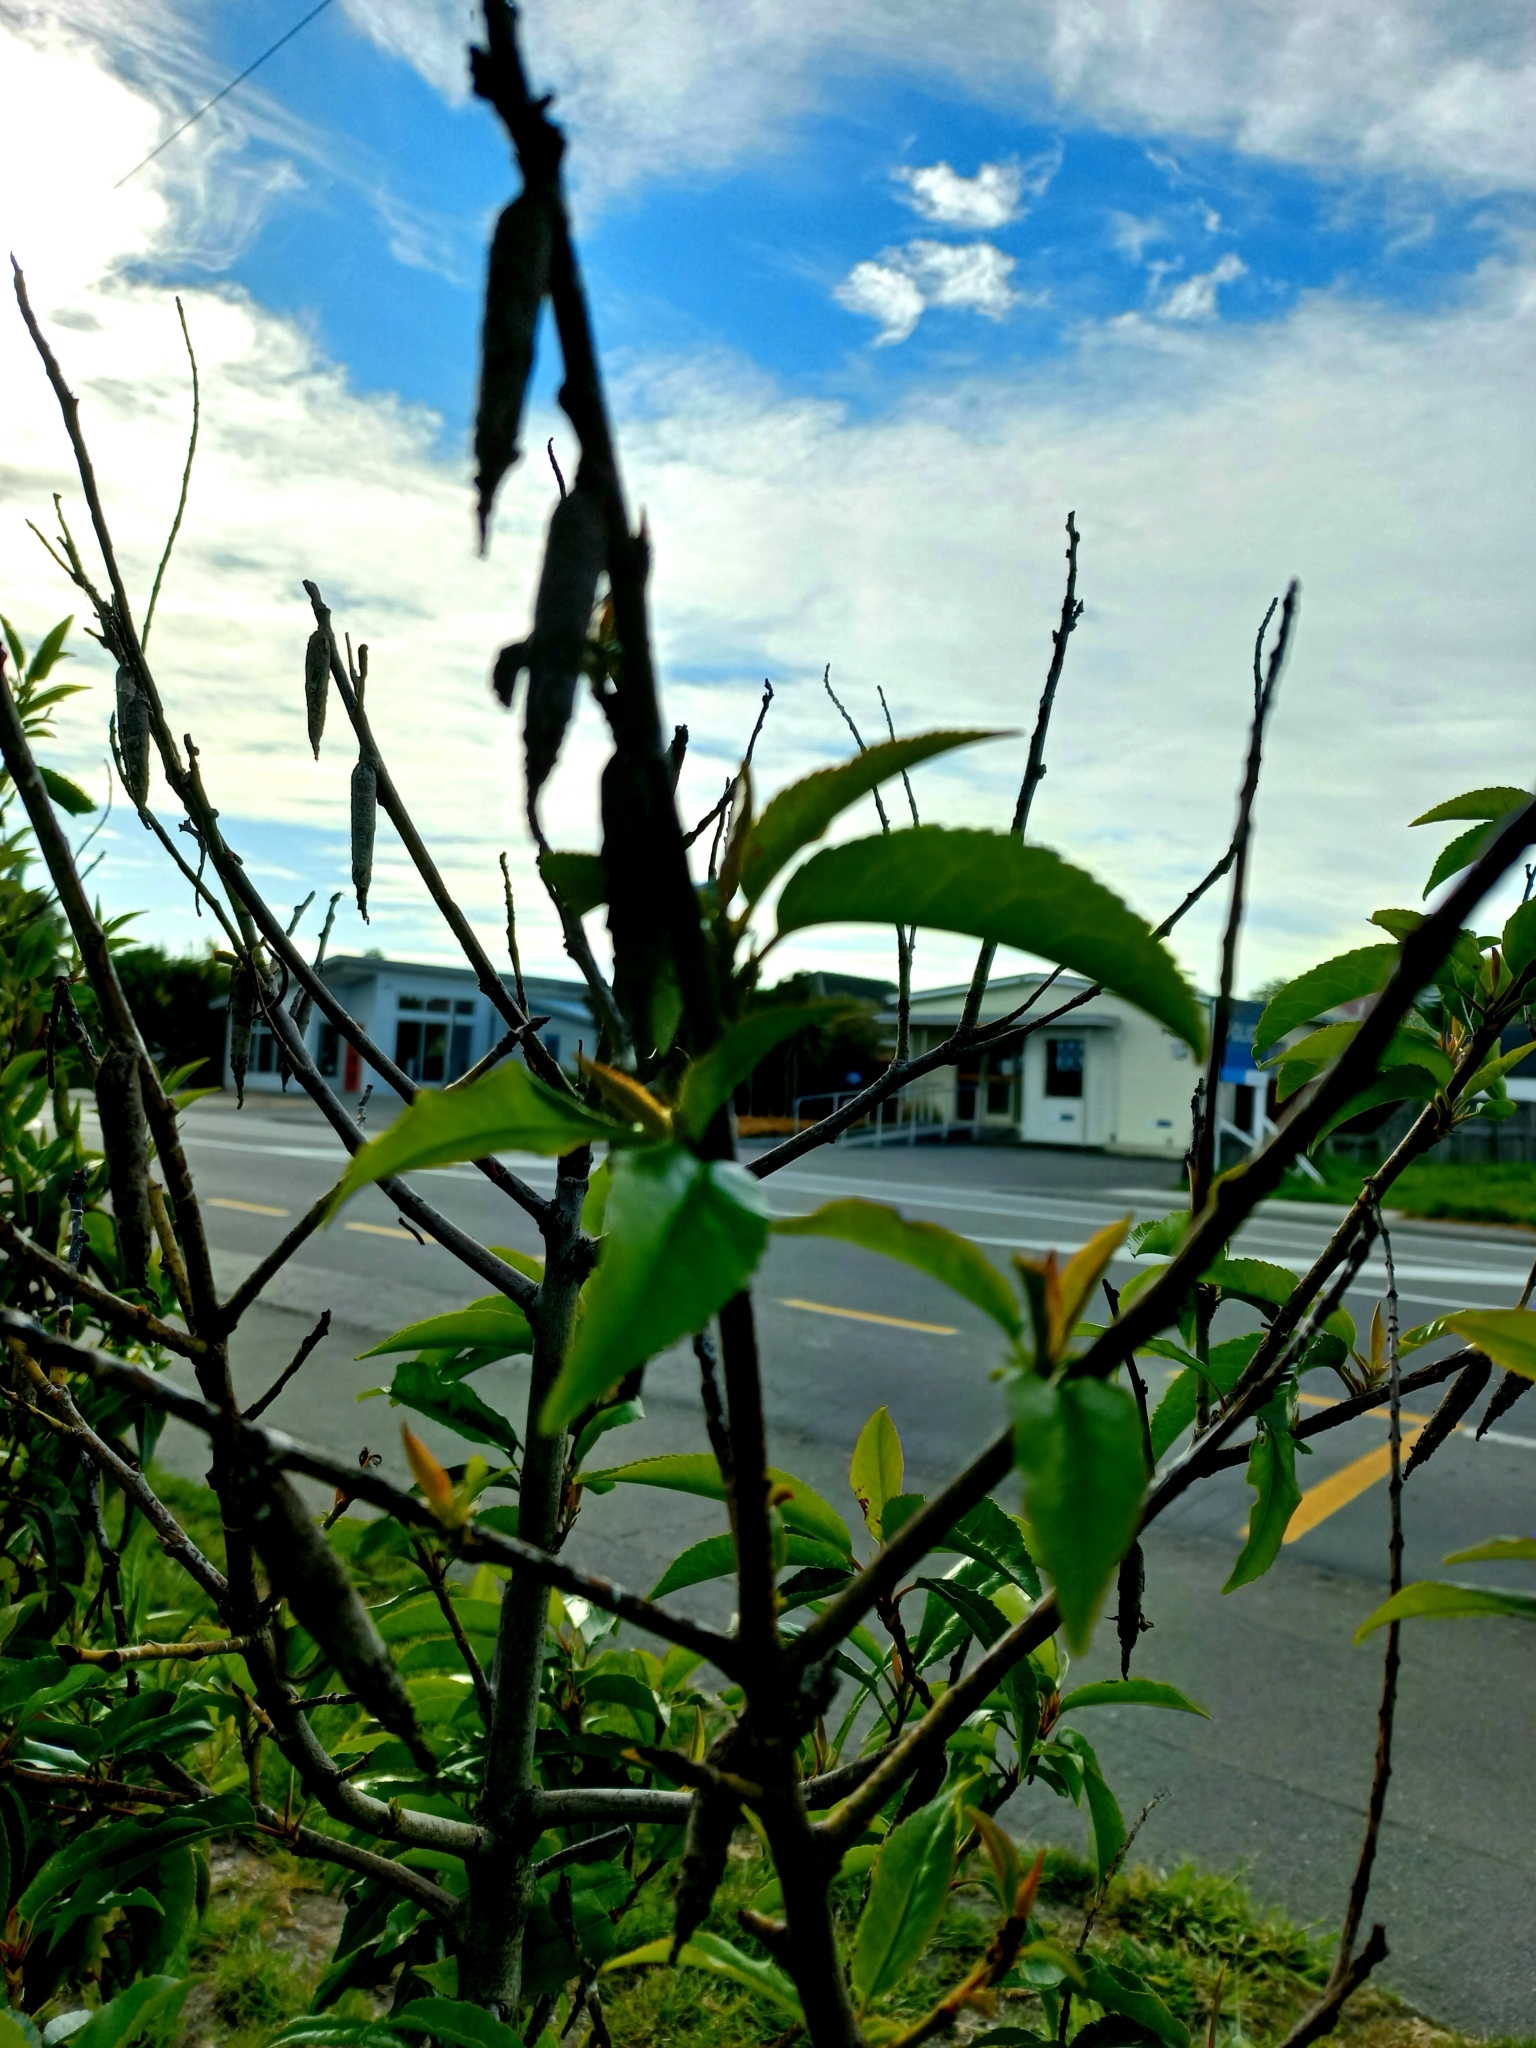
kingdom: Animalia
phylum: Arthropoda
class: Insecta
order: Lepidoptera
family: Psychidae
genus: Liothula
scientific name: Liothula omnivora
